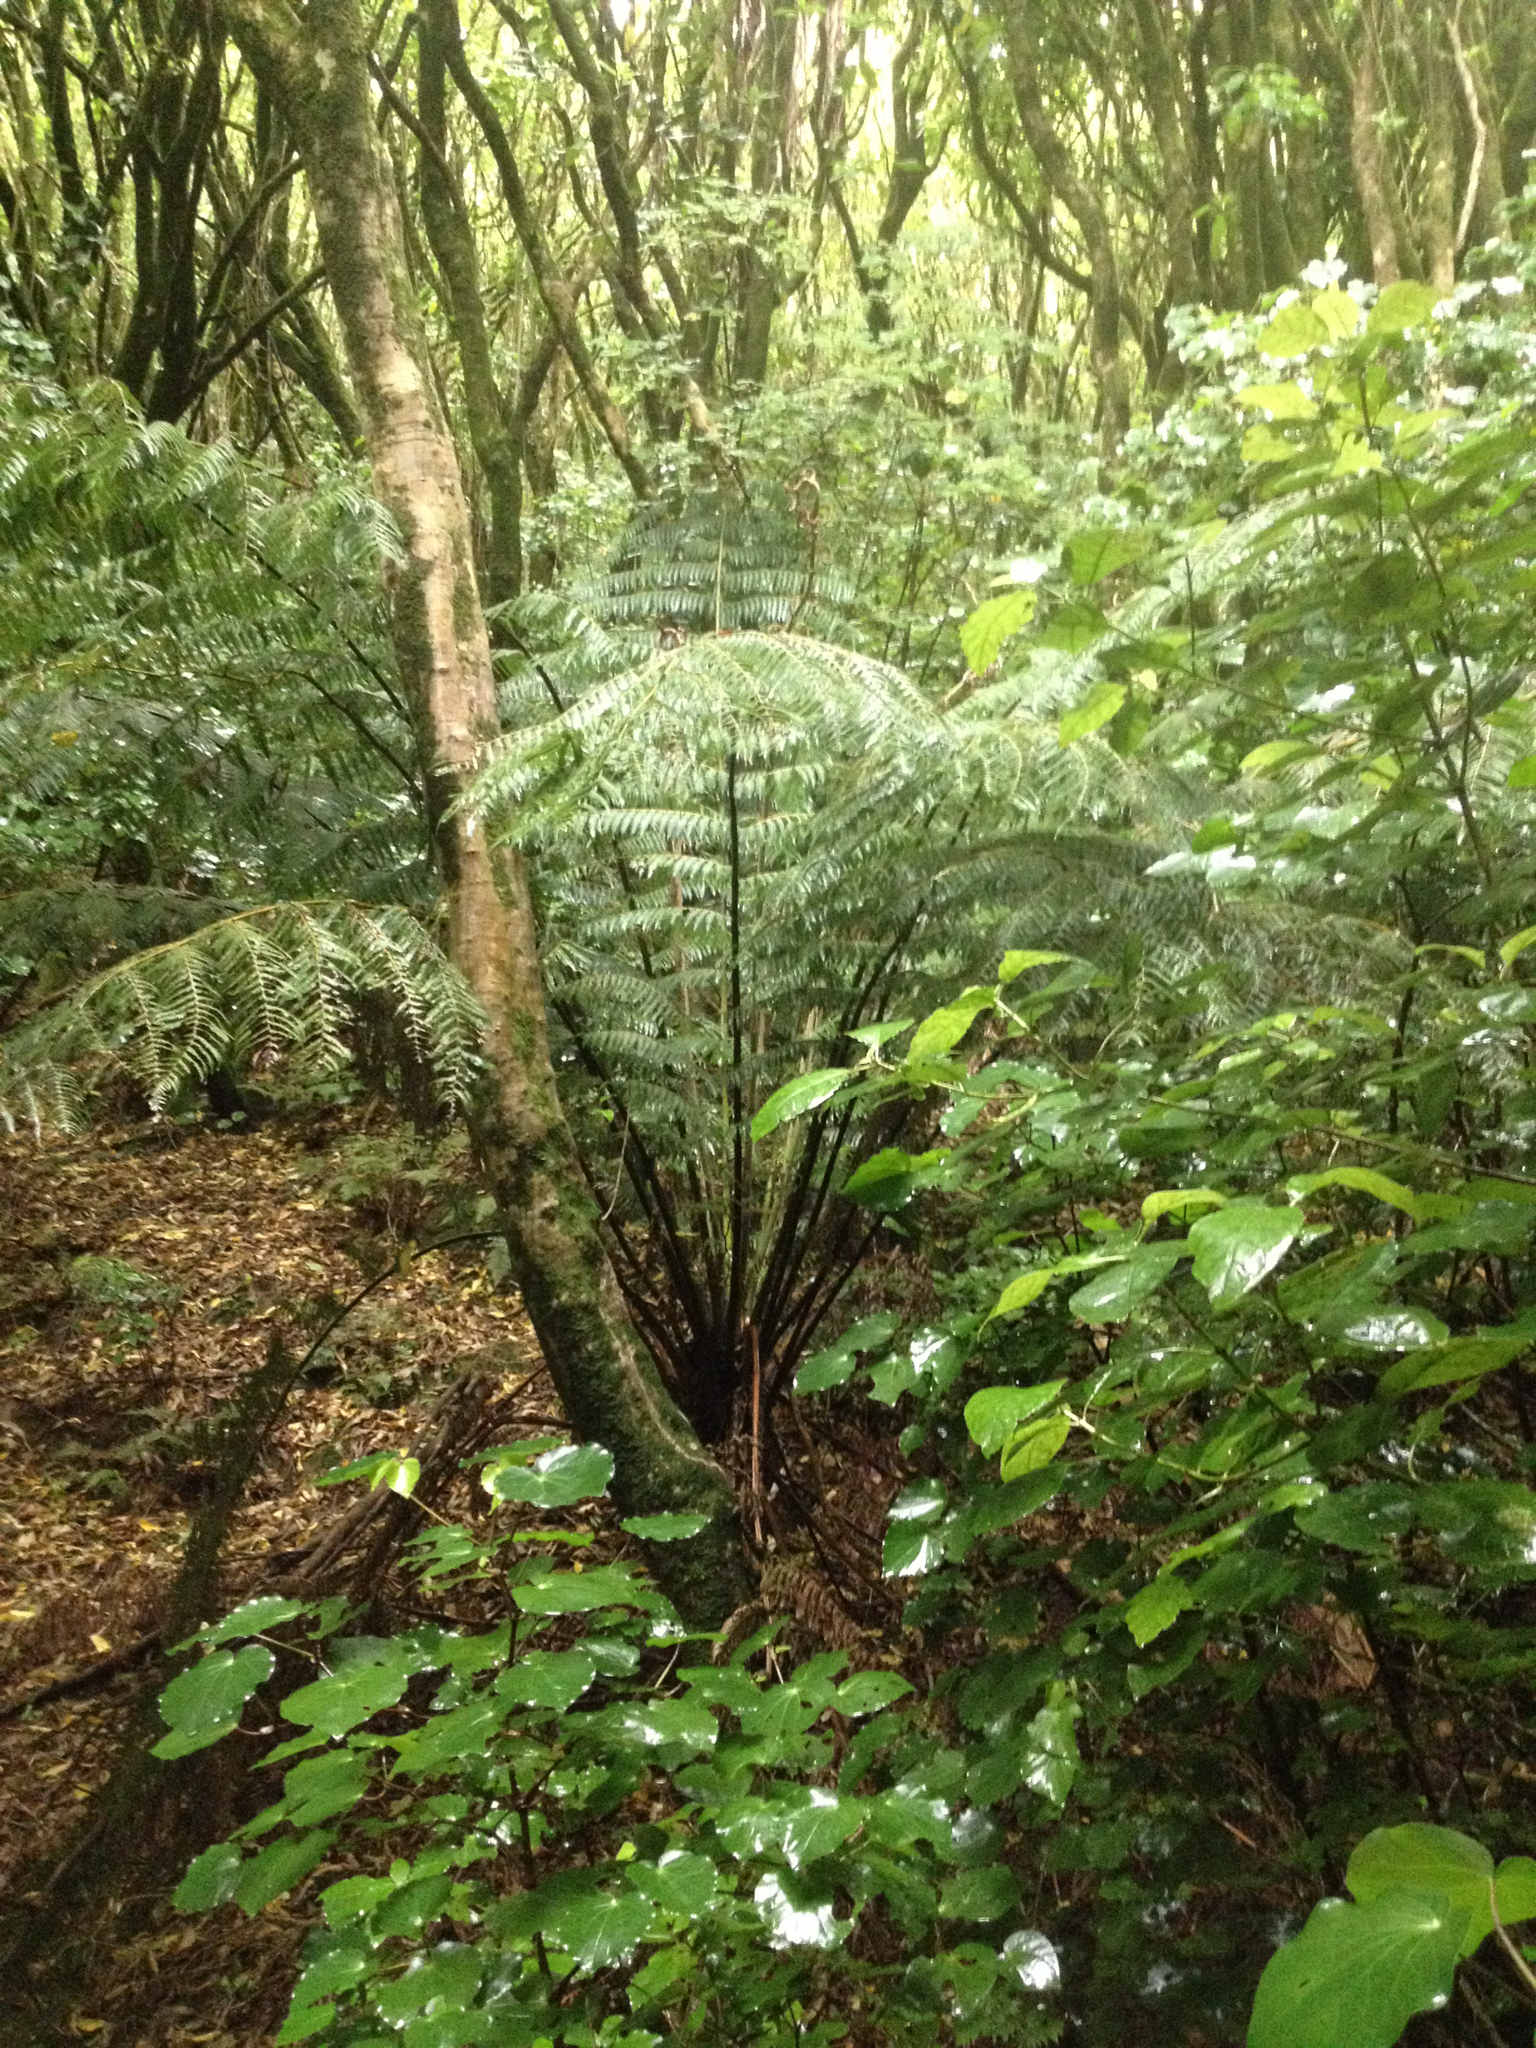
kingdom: Plantae
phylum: Tracheophyta
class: Polypodiopsida
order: Cyatheales
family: Cyatheaceae
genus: Sphaeropteris
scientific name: Sphaeropteris medullaris
